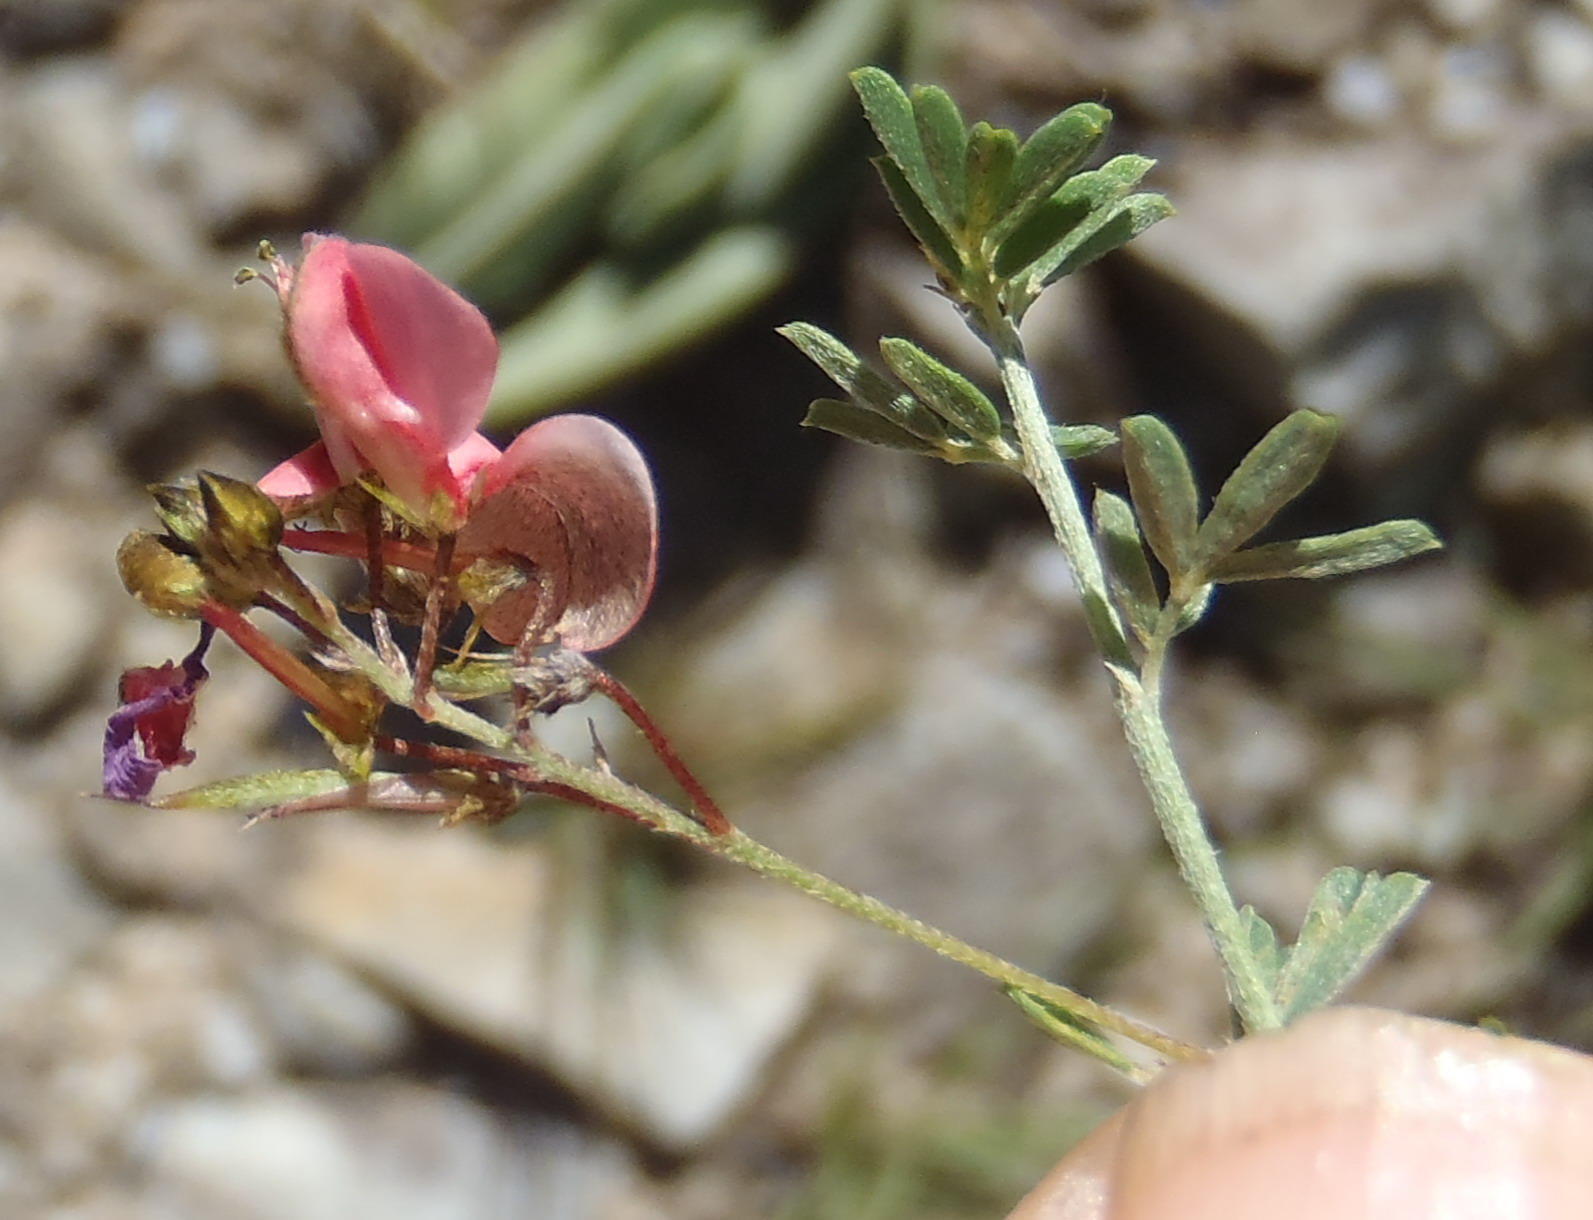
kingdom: Plantae
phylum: Tracheophyta
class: Magnoliopsida
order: Fabales
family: Fabaceae
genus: Indigofera
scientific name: Indigofera punctata
